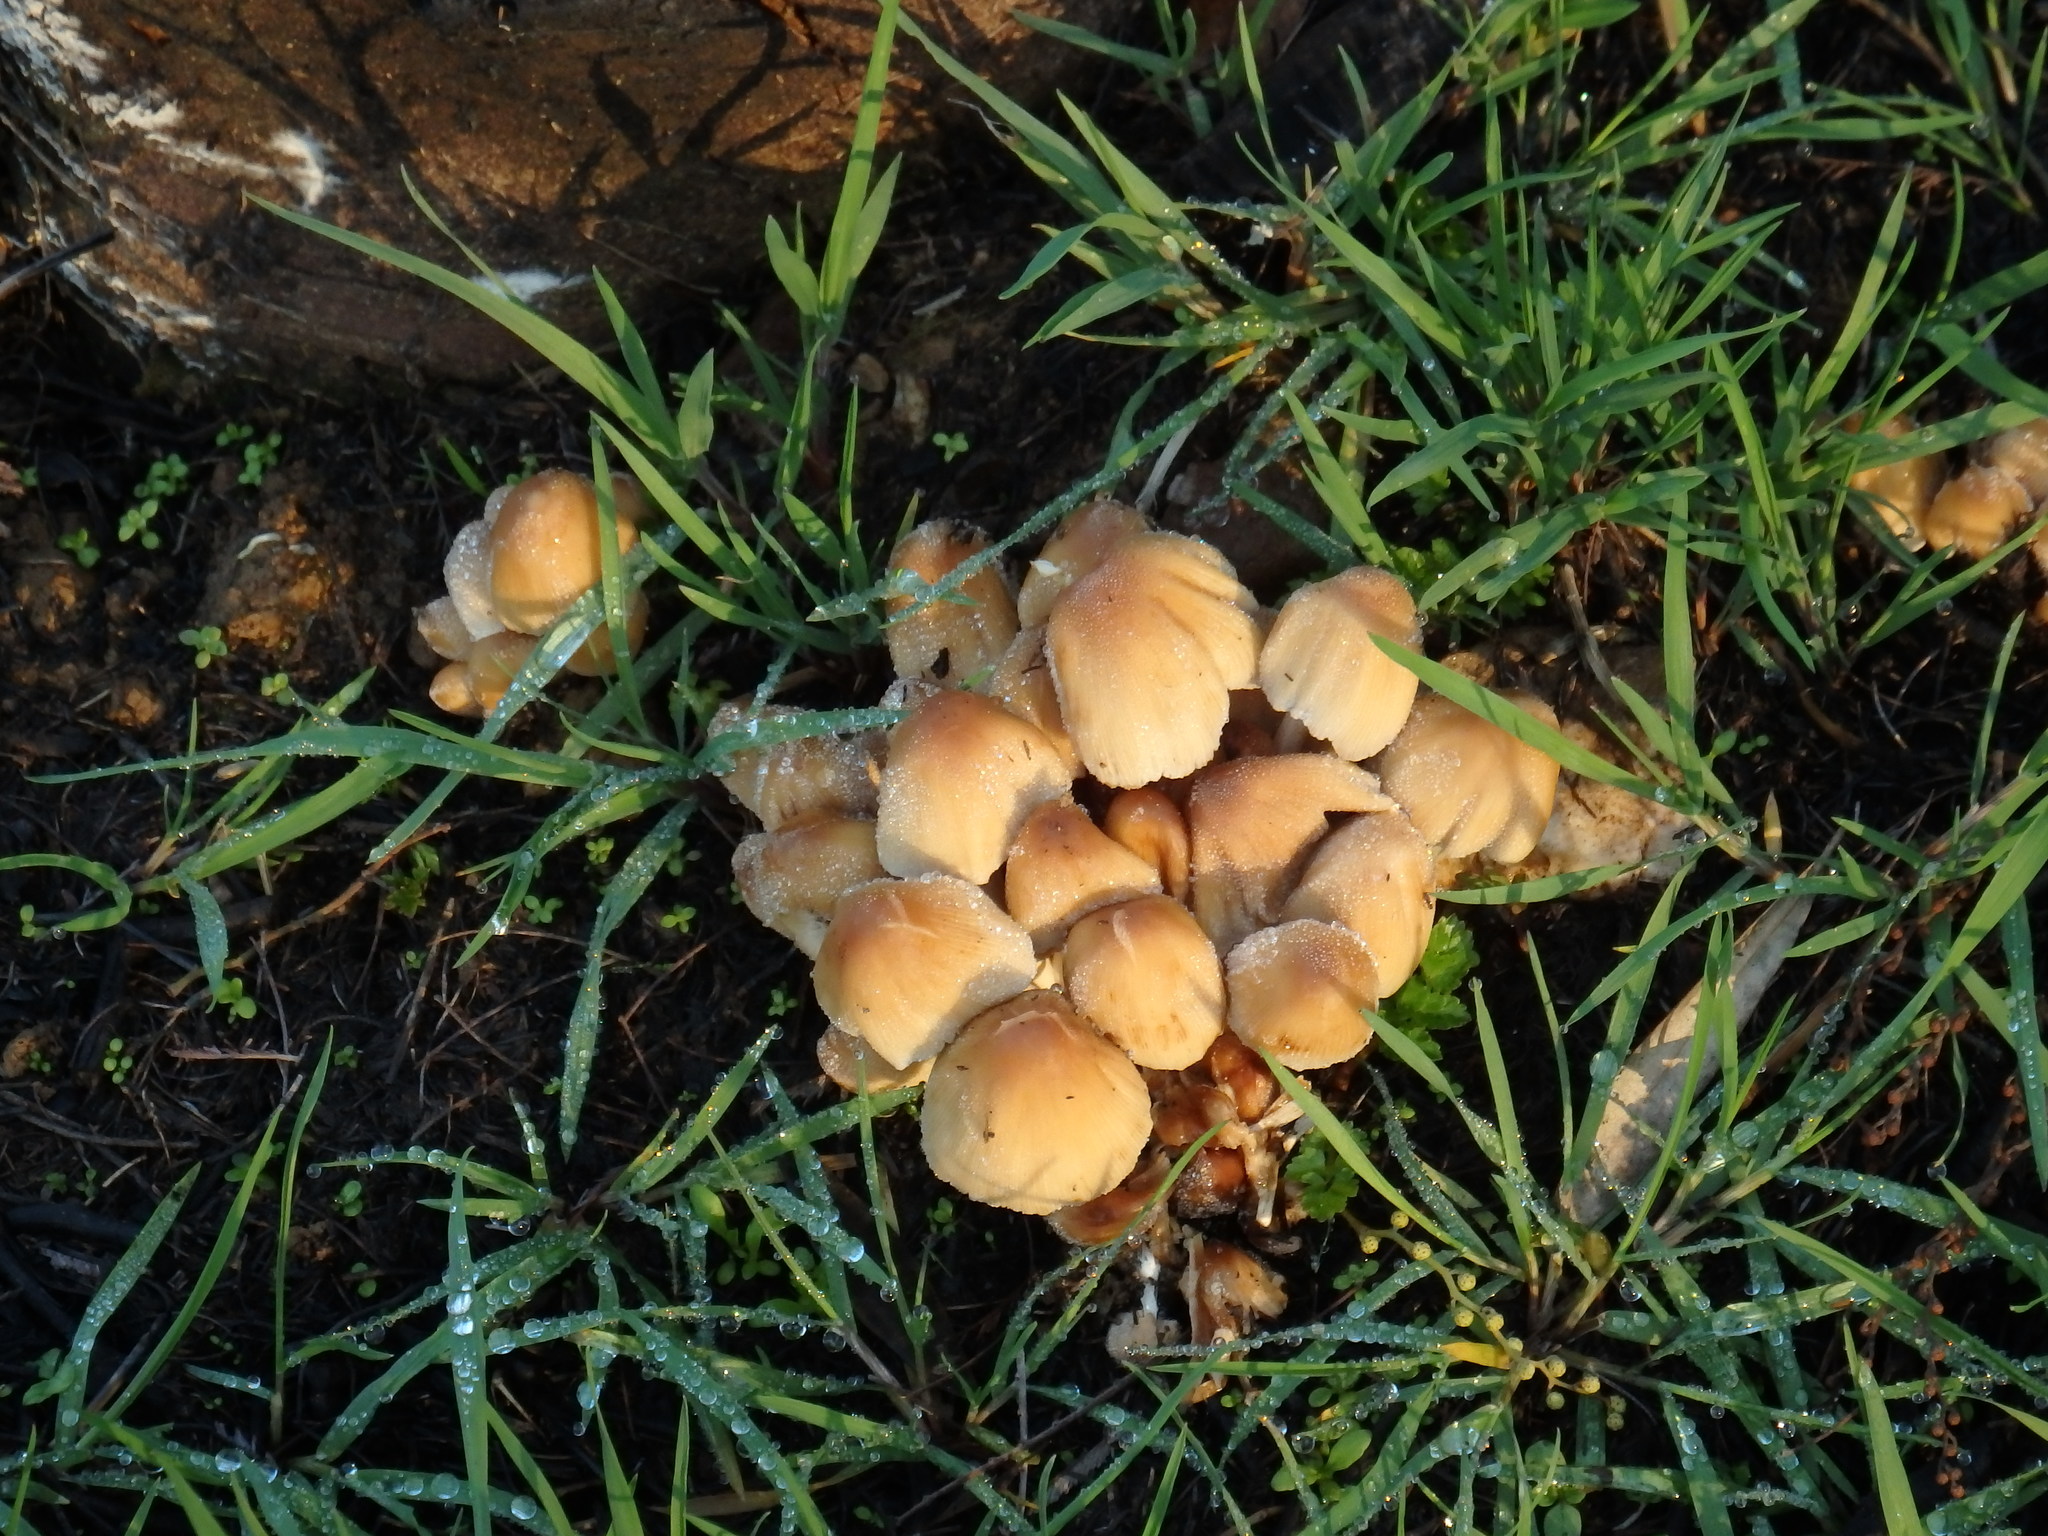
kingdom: Fungi
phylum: Basidiomycota
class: Agaricomycetes
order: Agaricales
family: Psathyrellaceae
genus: Coprinellus
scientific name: Coprinellus micaceus
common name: Glistening ink-cap
